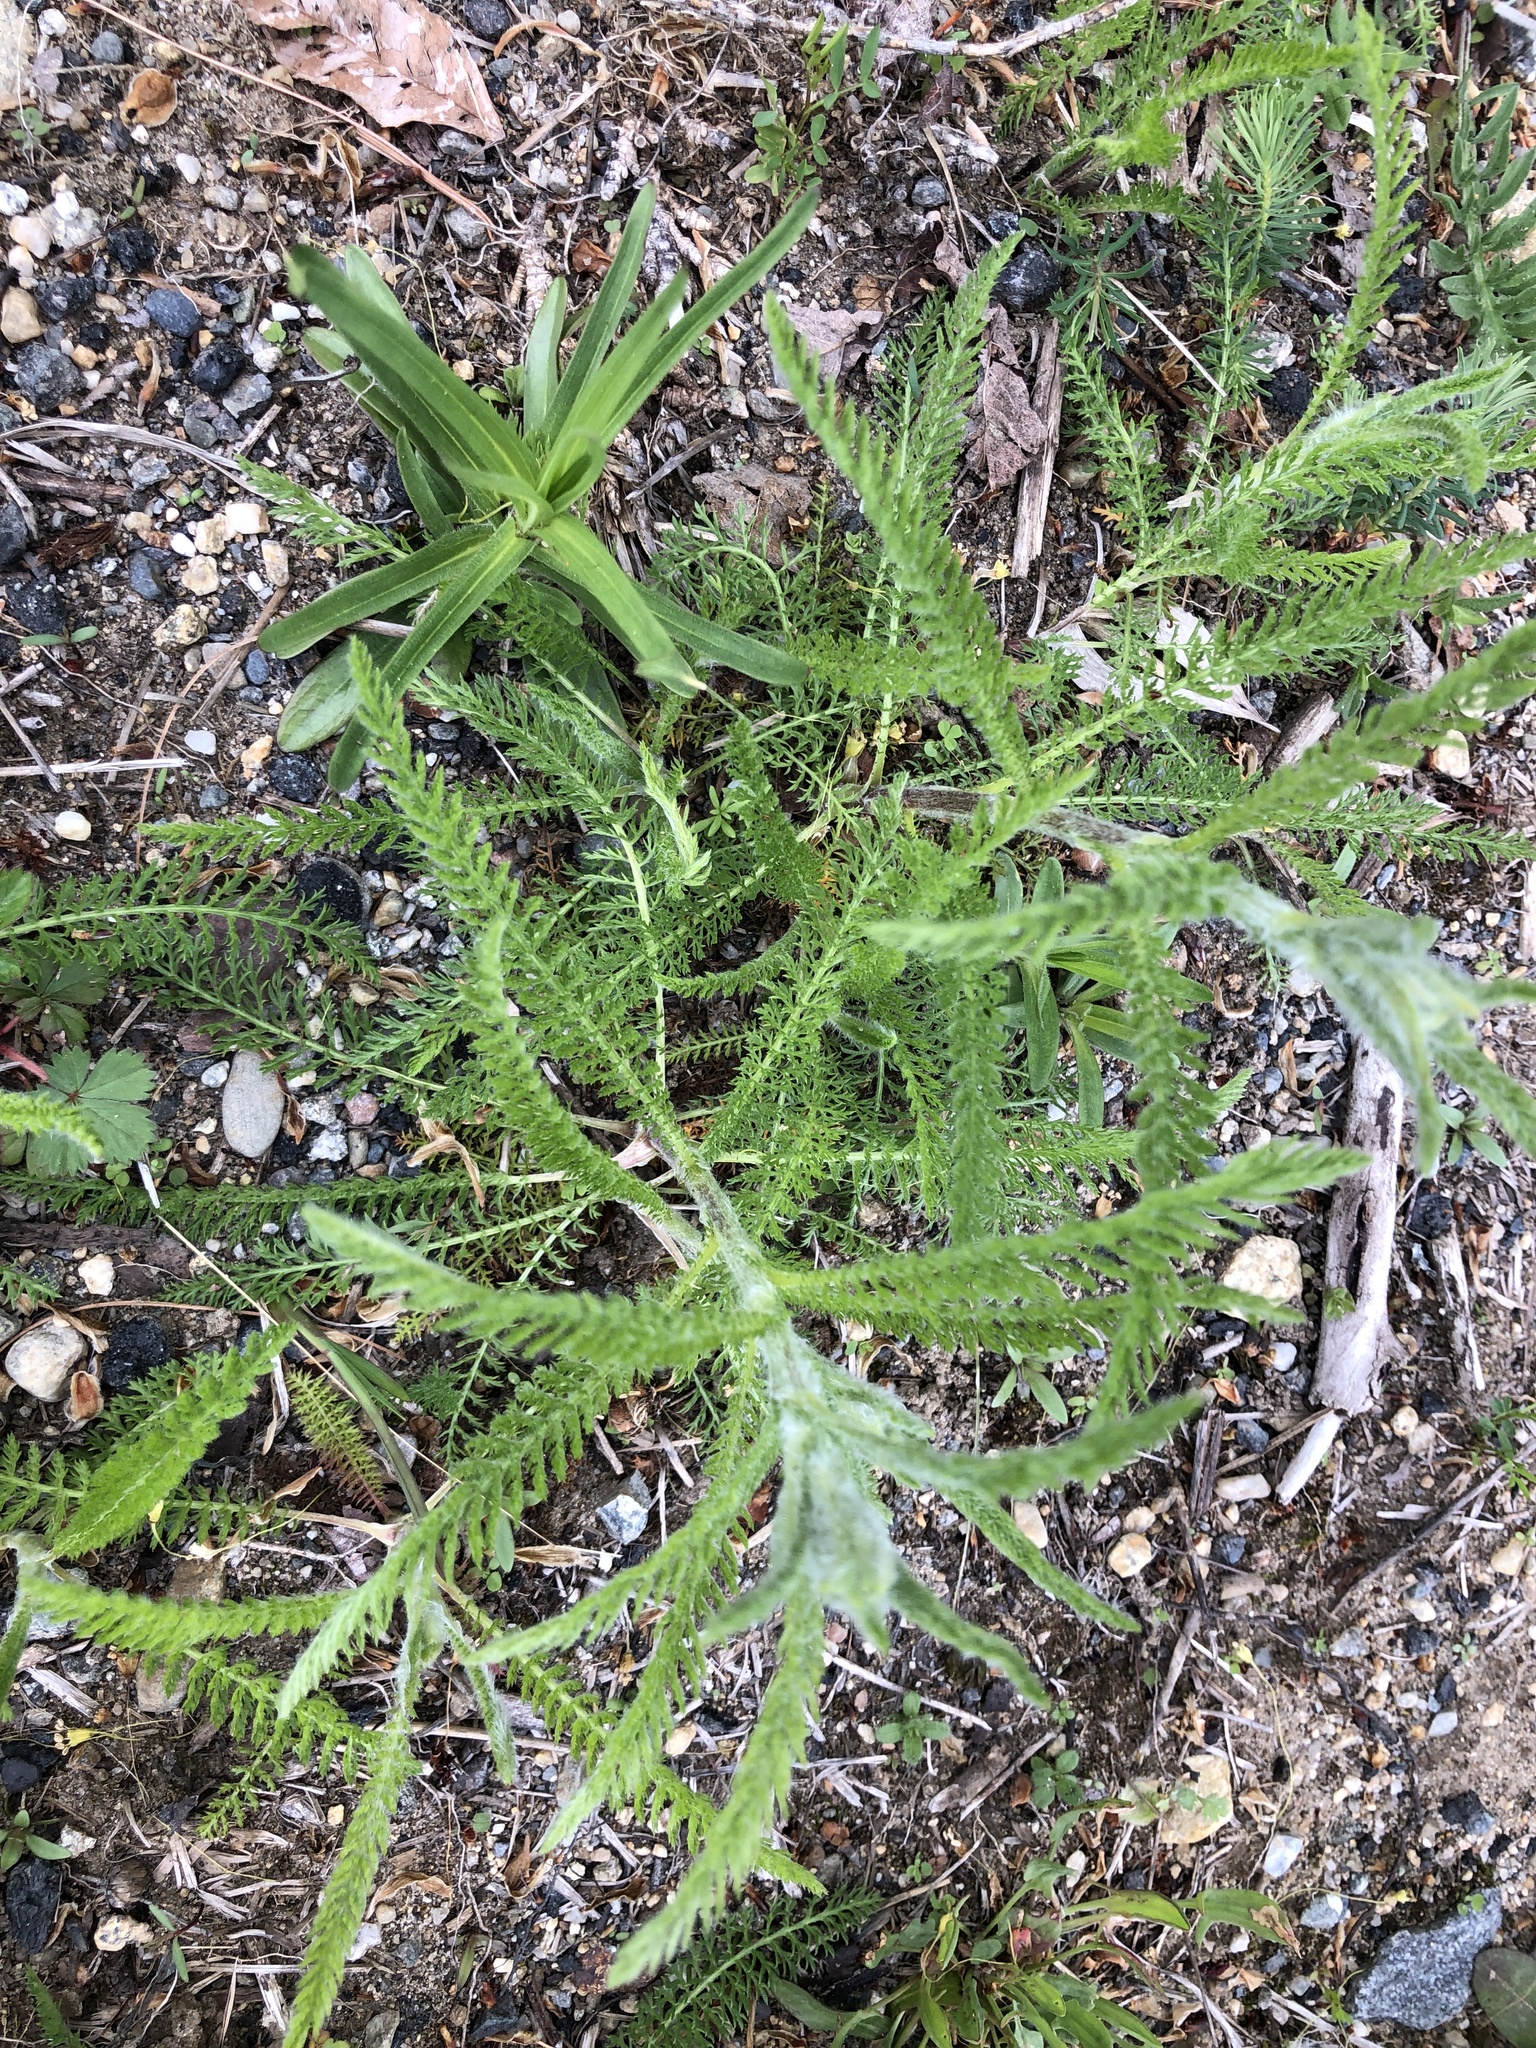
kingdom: Plantae
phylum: Tracheophyta
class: Magnoliopsida
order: Asterales
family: Asteraceae
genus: Achillea
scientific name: Achillea millefolium
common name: Yarrow
